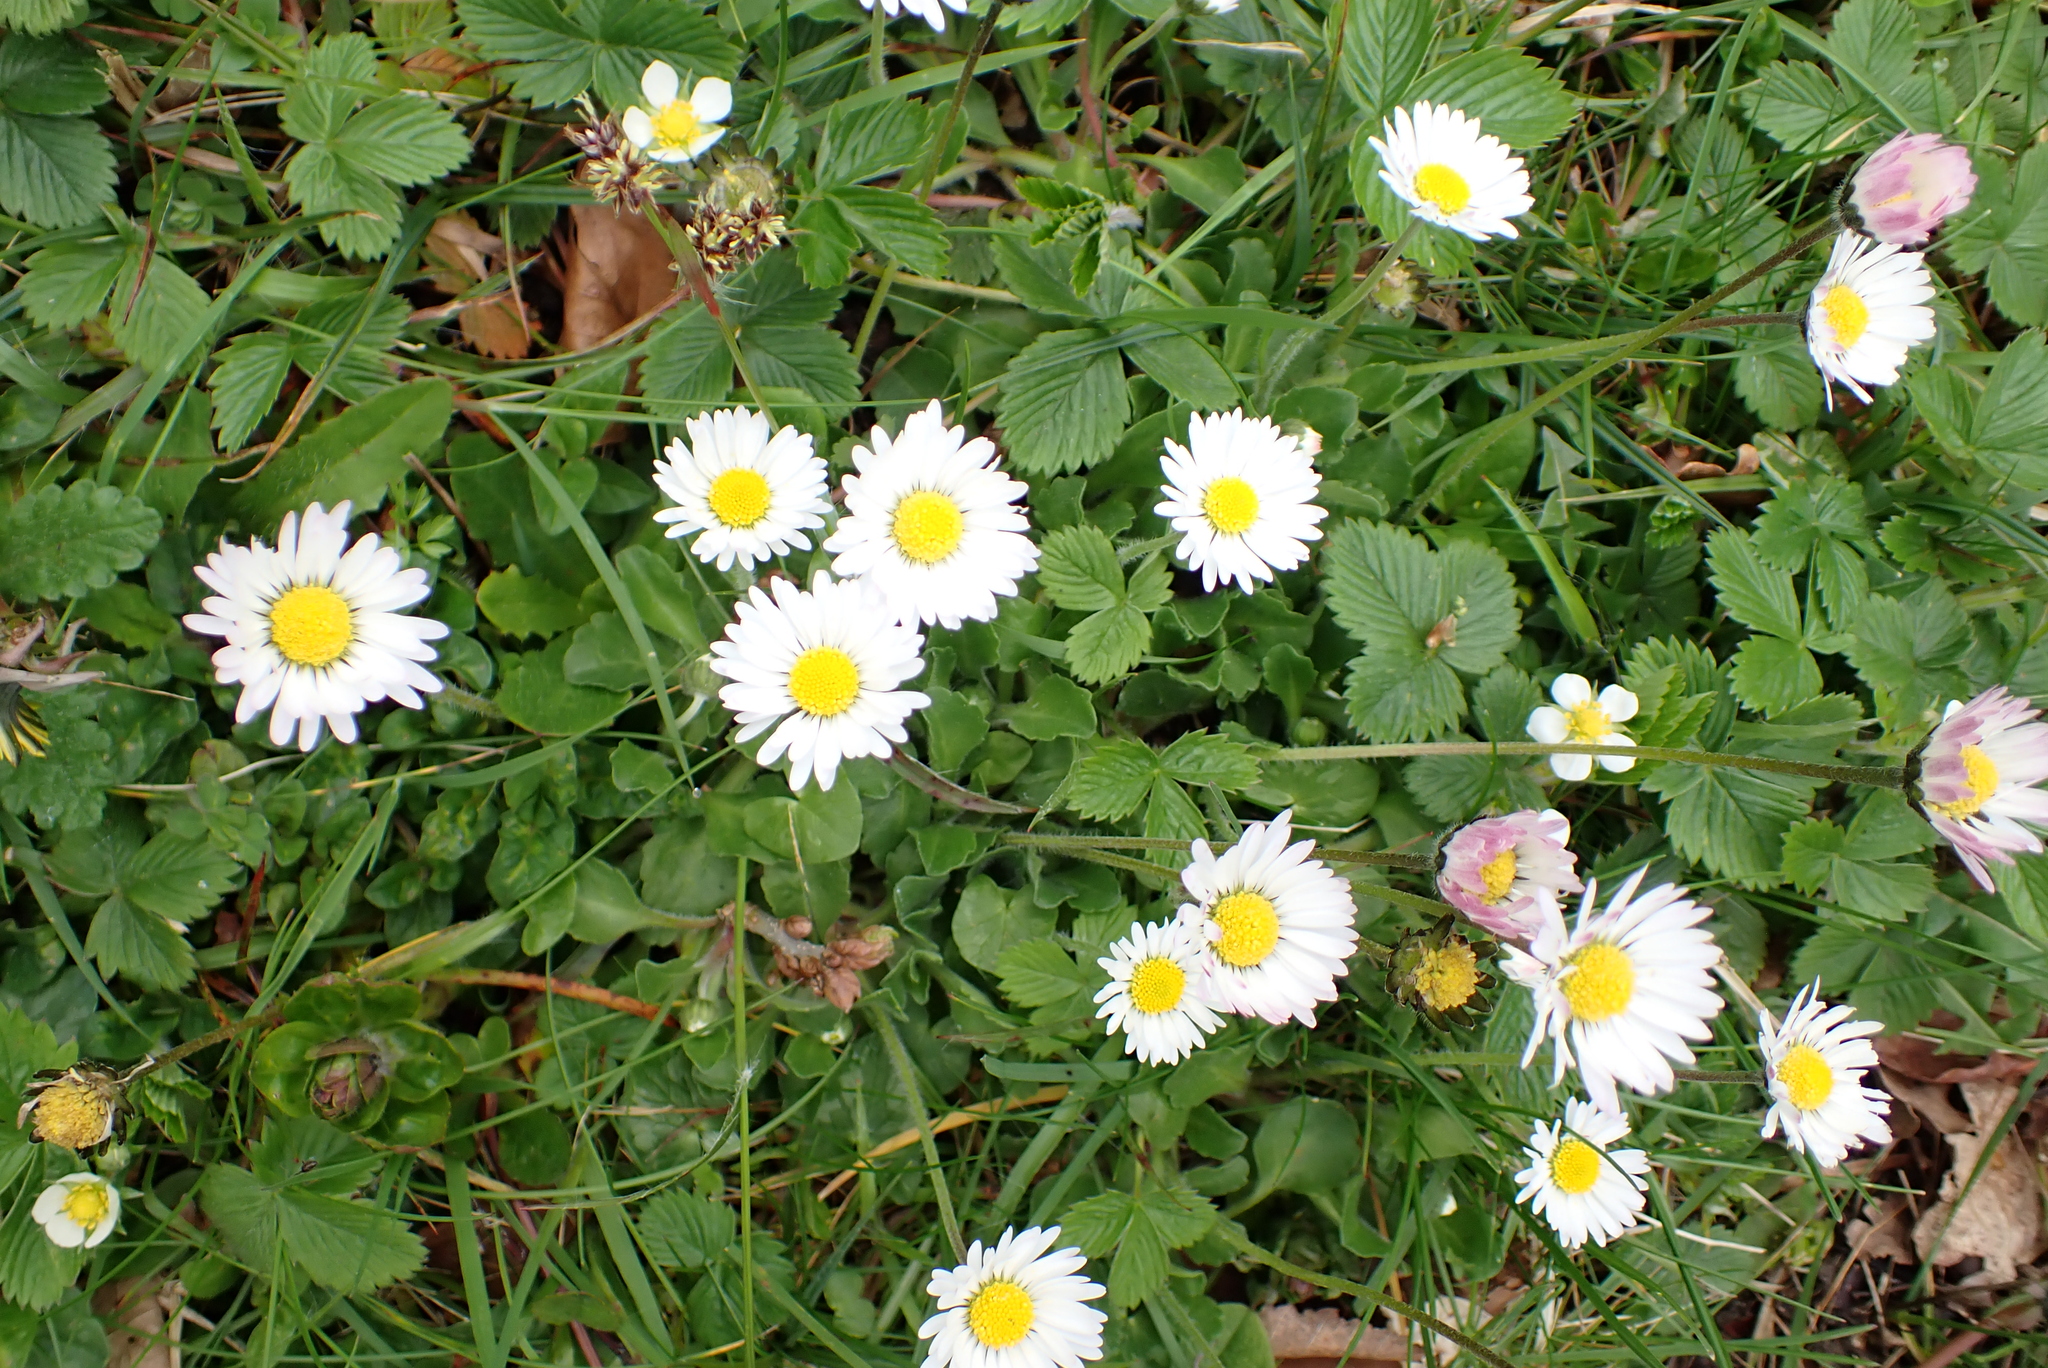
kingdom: Plantae
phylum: Tracheophyta
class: Magnoliopsida
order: Asterales
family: Asteraceae
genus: Bellis
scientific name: Bellis perennis
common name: Lawndaisy
